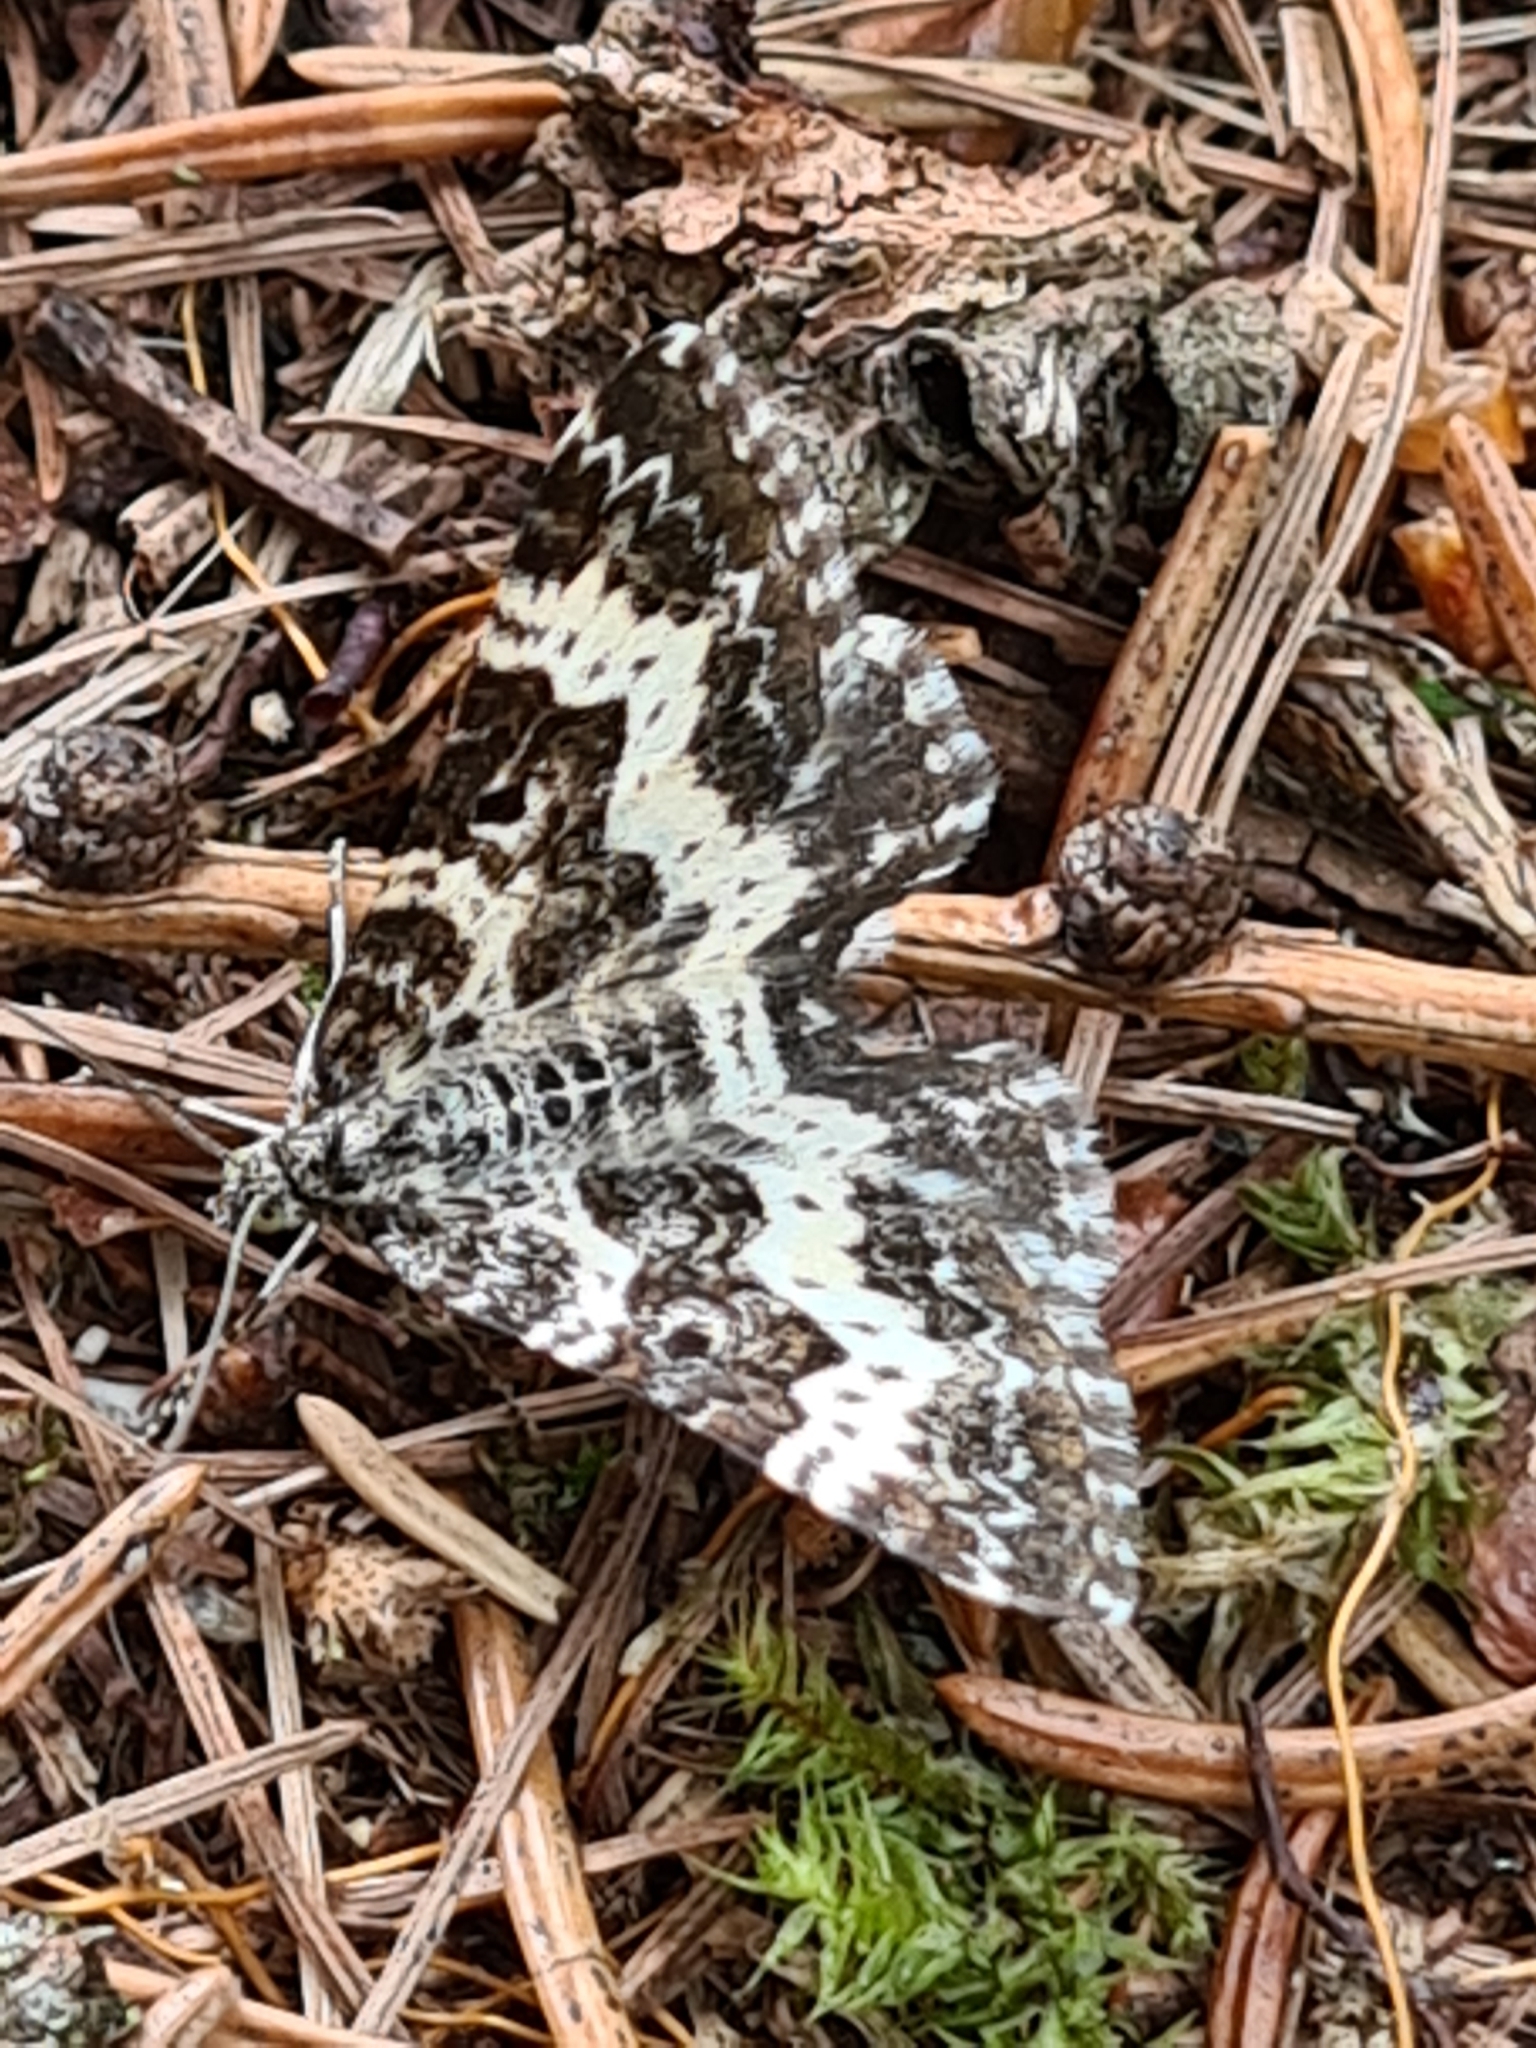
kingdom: Animalia
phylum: Arthropoda
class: Insecta
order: Lepidoptera
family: Geometridae
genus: Epirrhoe
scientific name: Epirrhoe tristata
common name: Small argent & sable
